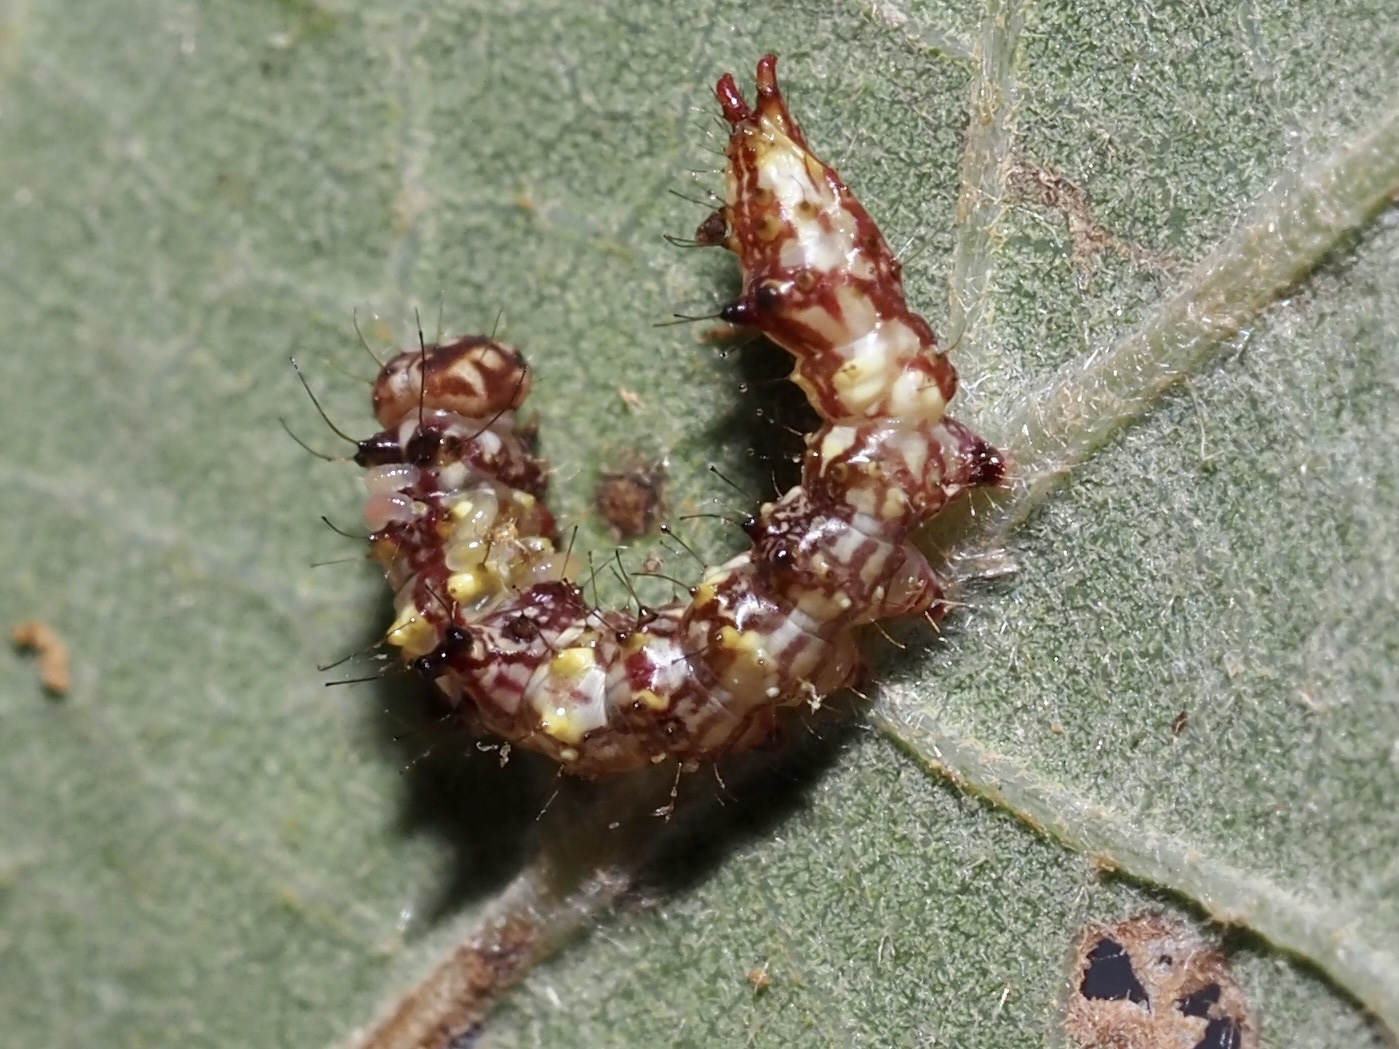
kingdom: Animalia
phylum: Arthropoda
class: Insecta
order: Lepidoptera
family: Notodontidae
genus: Schizura
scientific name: Schizura ipomaeae
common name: Morning-glory prominent
